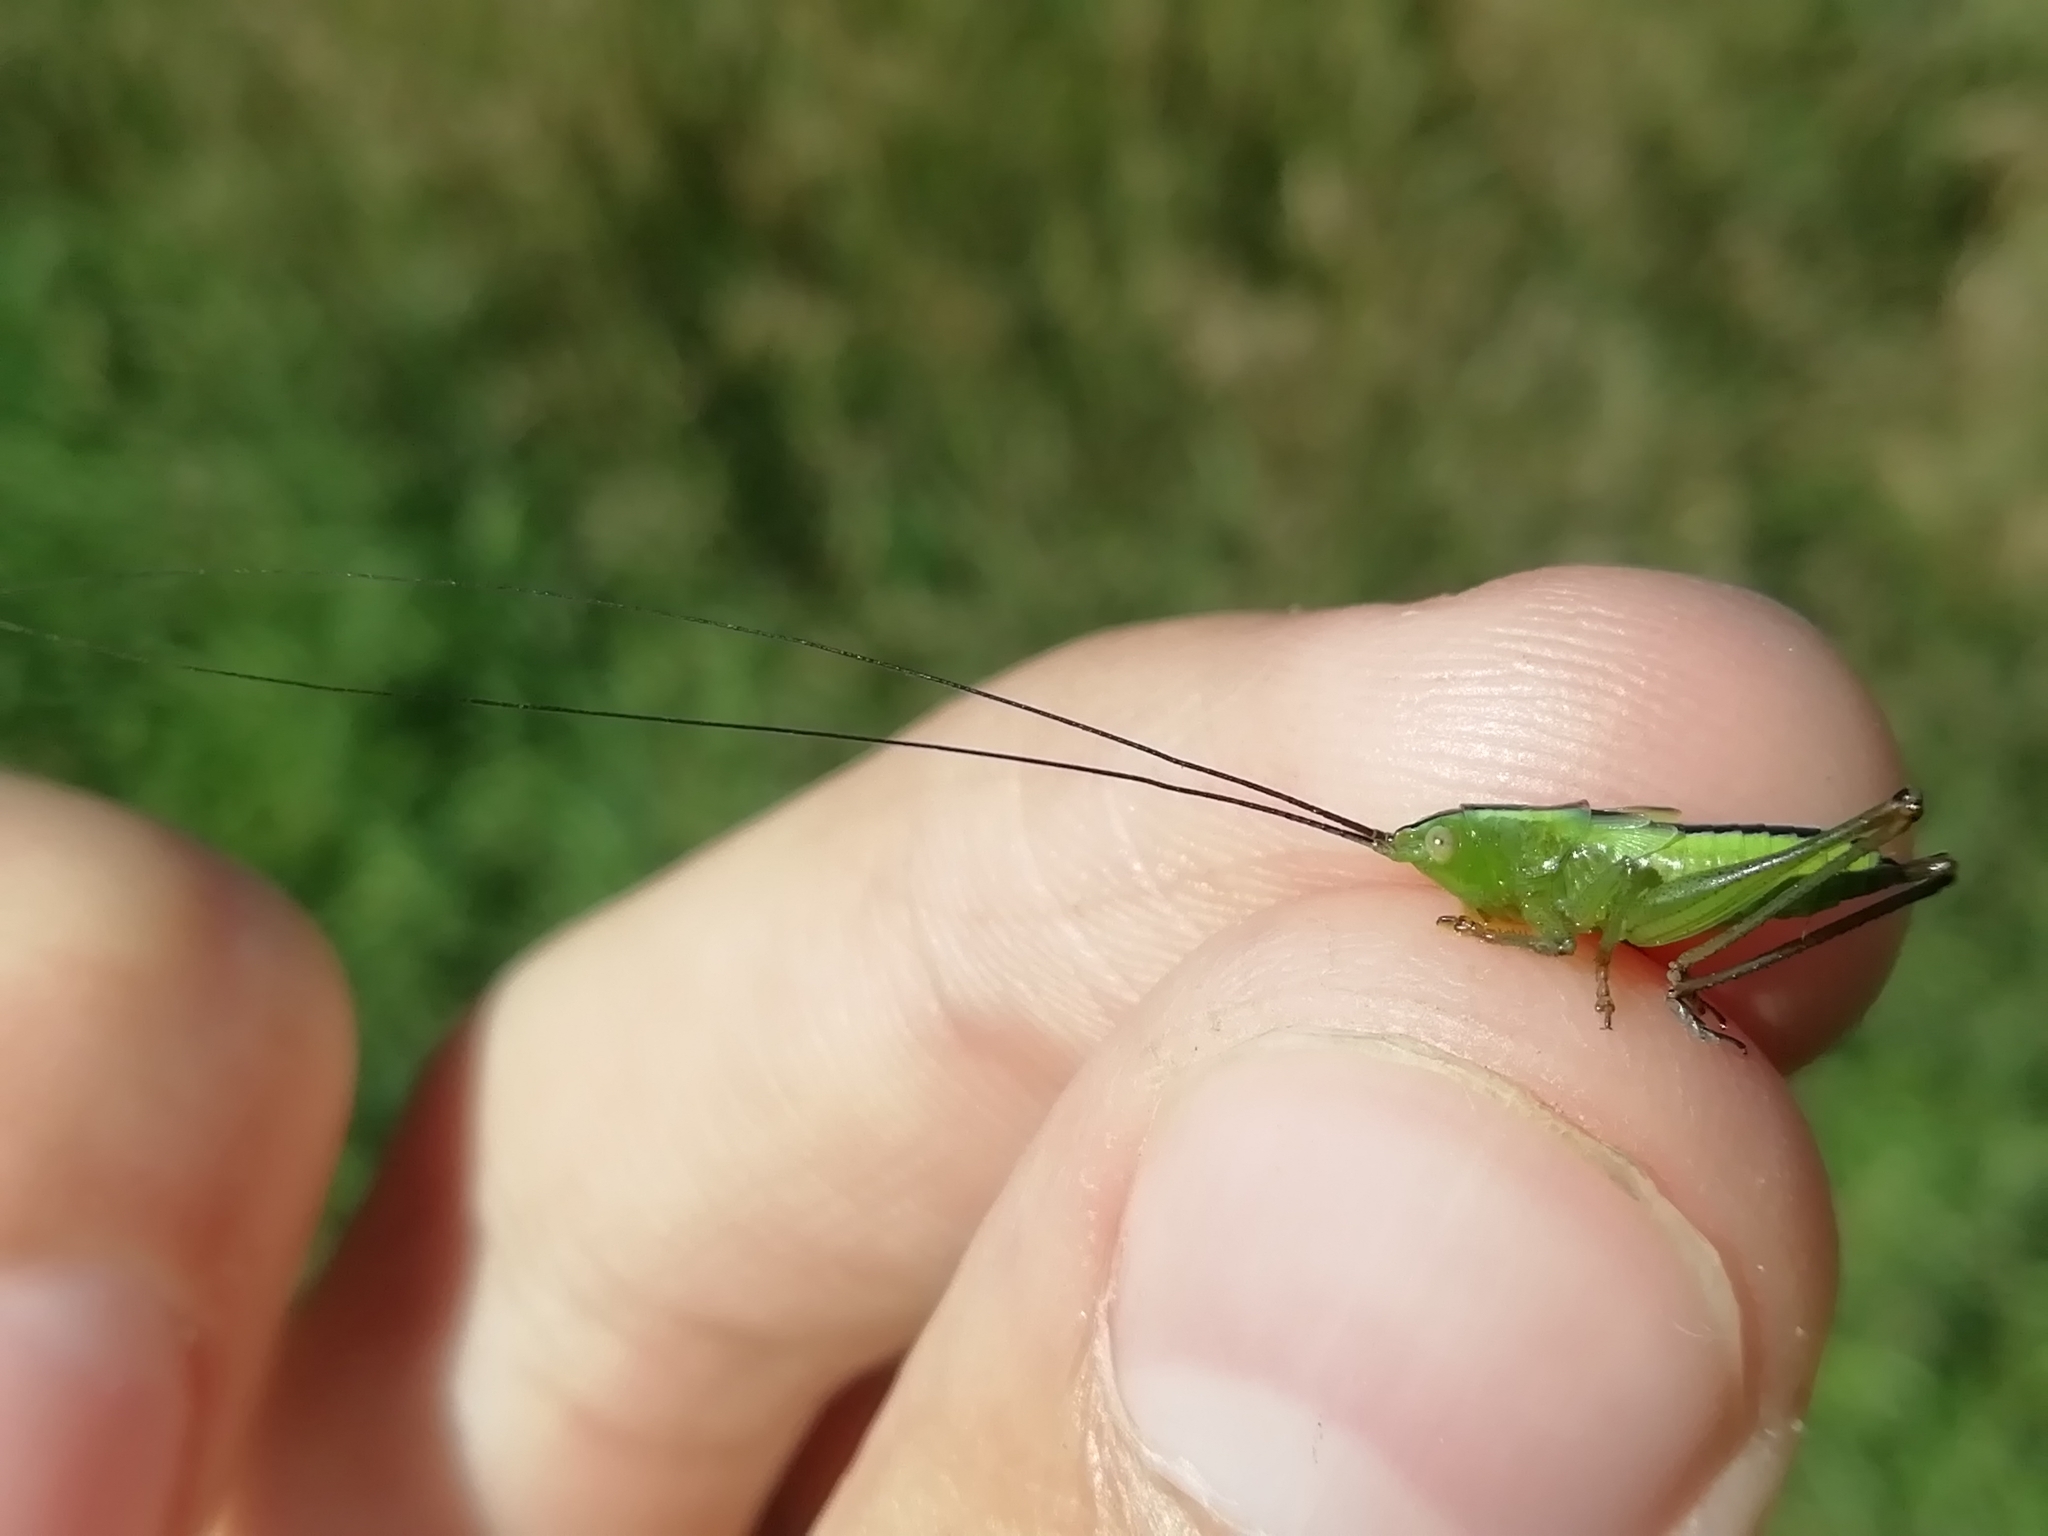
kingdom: Animalia
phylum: Arthropoda
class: Insecta
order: Orthoptera
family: Tettigoniidae
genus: Conocephalus
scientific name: Conocephalus fuscus
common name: Long-winged conehead
